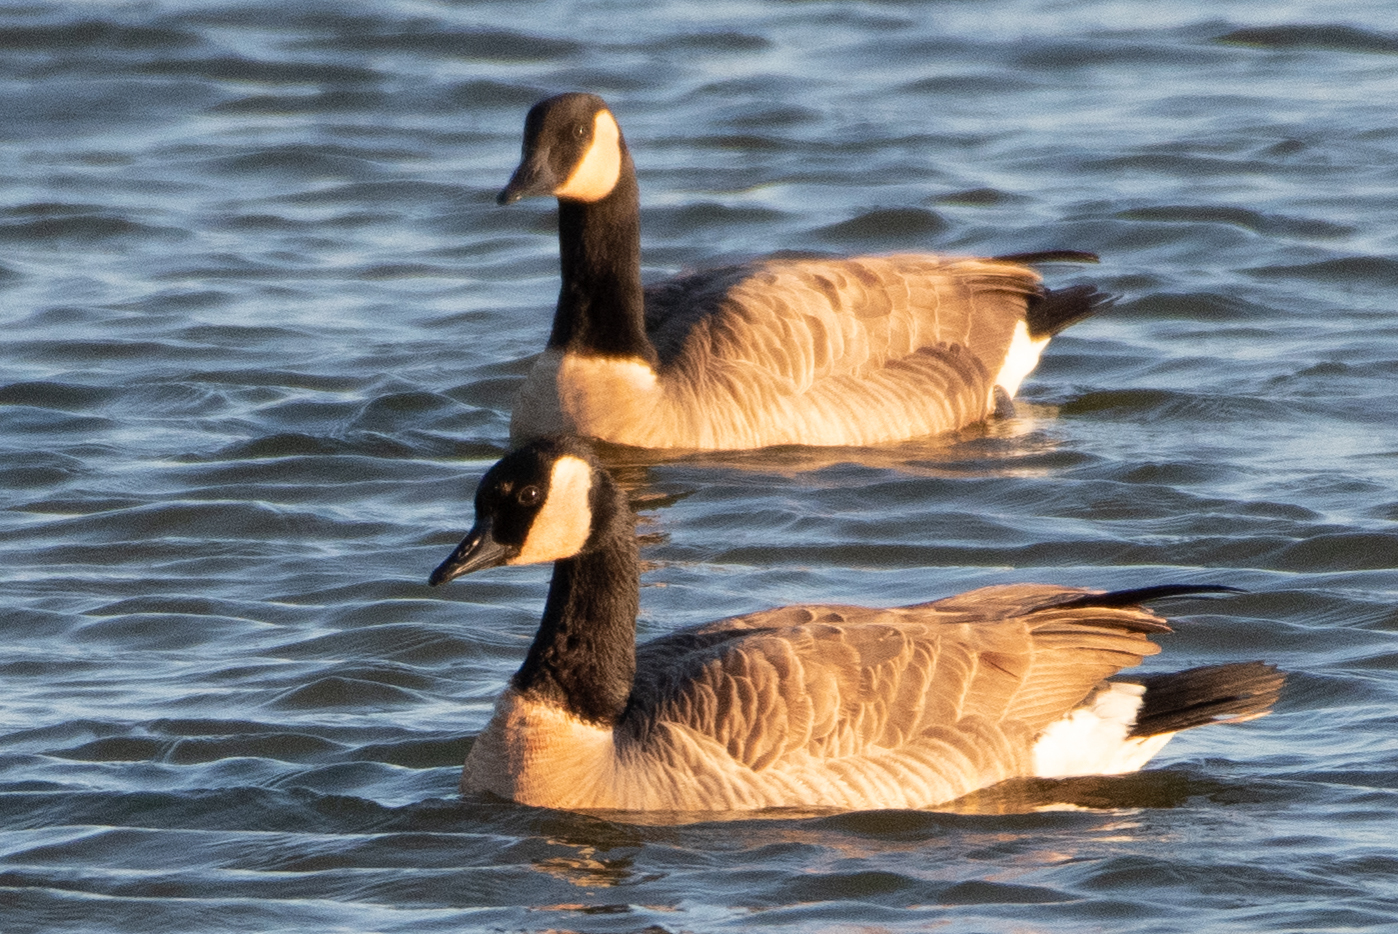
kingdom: Animalia
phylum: Chordata
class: Aves
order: Anseriformes
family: Anatidae
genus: Branta
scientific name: Branta canadensis
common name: Canada goose
